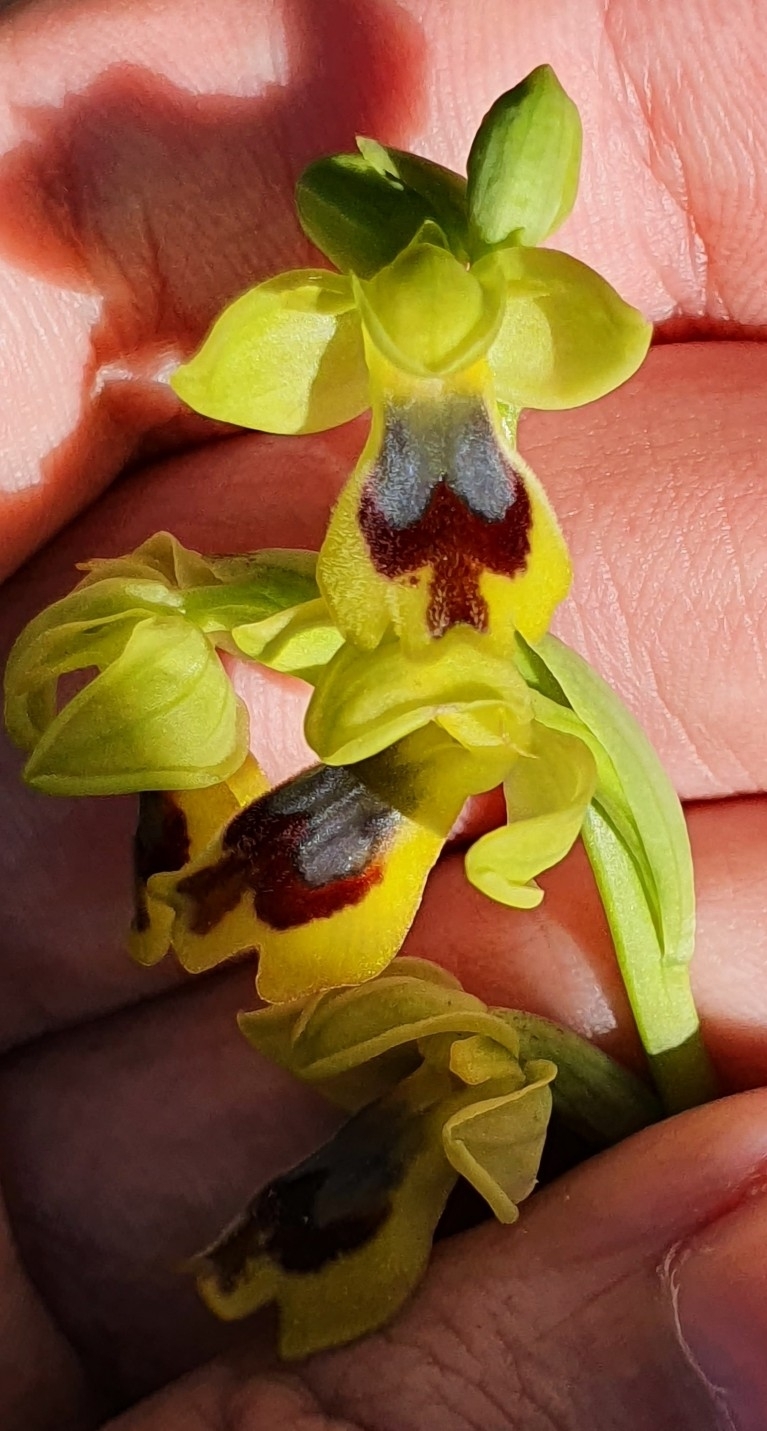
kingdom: Plantae
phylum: Tracheophyta
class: Liliopsida
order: Asparagales
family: Orchidaceae
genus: Ophrys
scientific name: Ophrys battandieri
